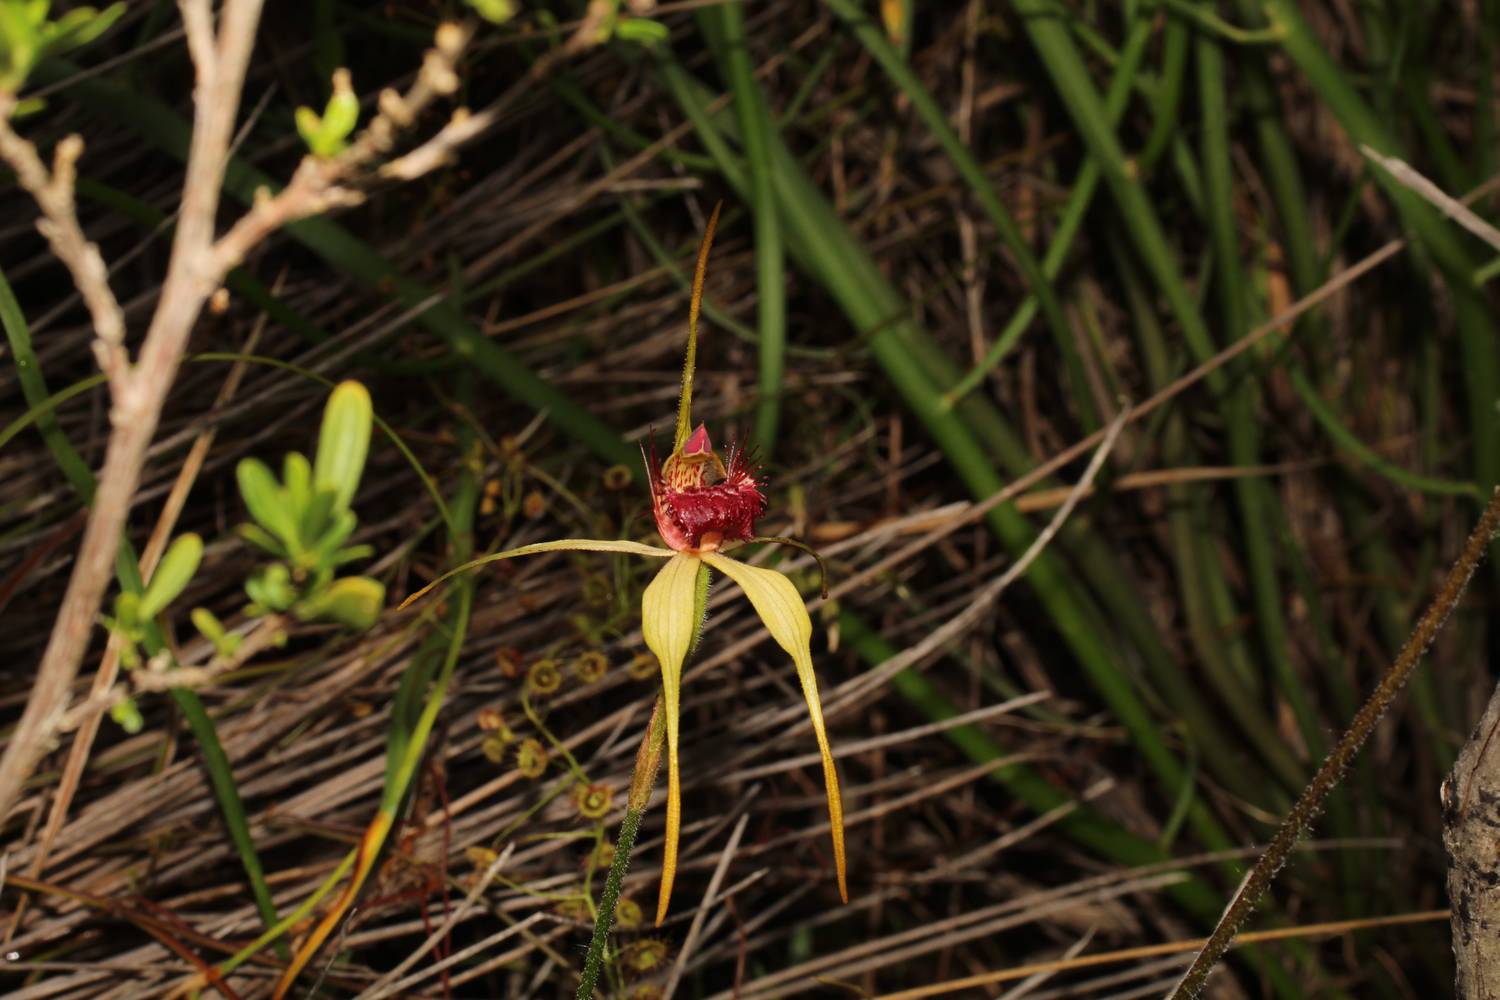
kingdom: Plantae
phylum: Tracheophyta
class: Liliopsida
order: Asparagales
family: Orchidaceae
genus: Caladenia
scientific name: Caladenia decora
